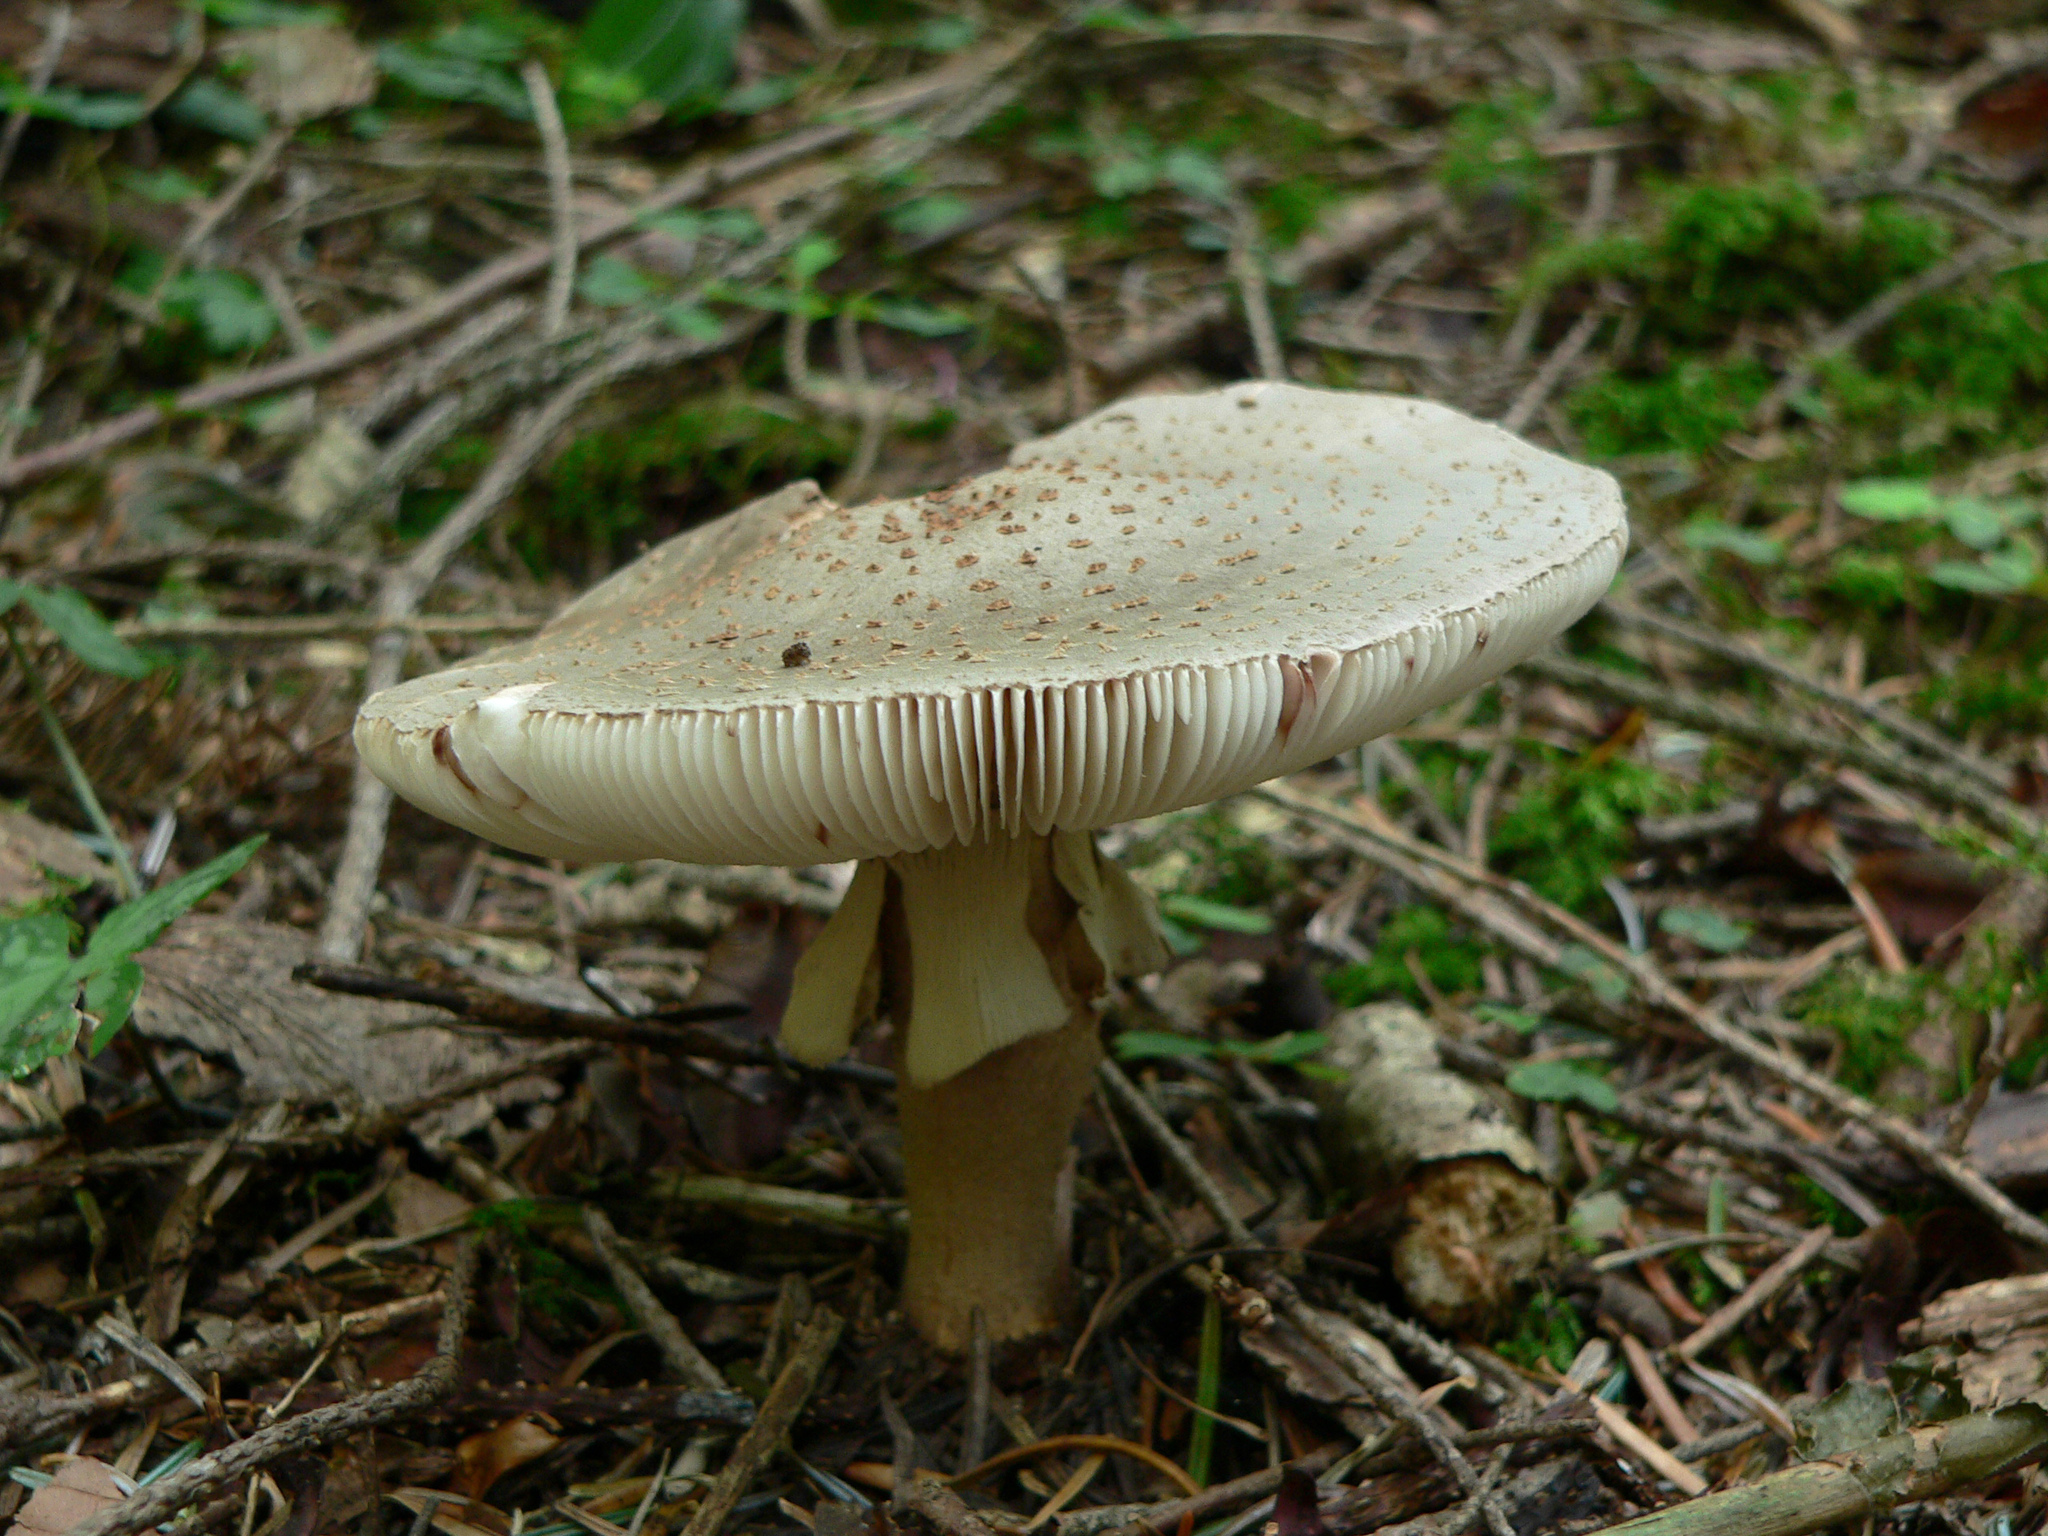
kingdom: Fungi
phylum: Basidiomycota
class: Agaricomycetes
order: Agaricales
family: Amanitaceae
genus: Amanita
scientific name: Amanita rubescens
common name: Blusher
